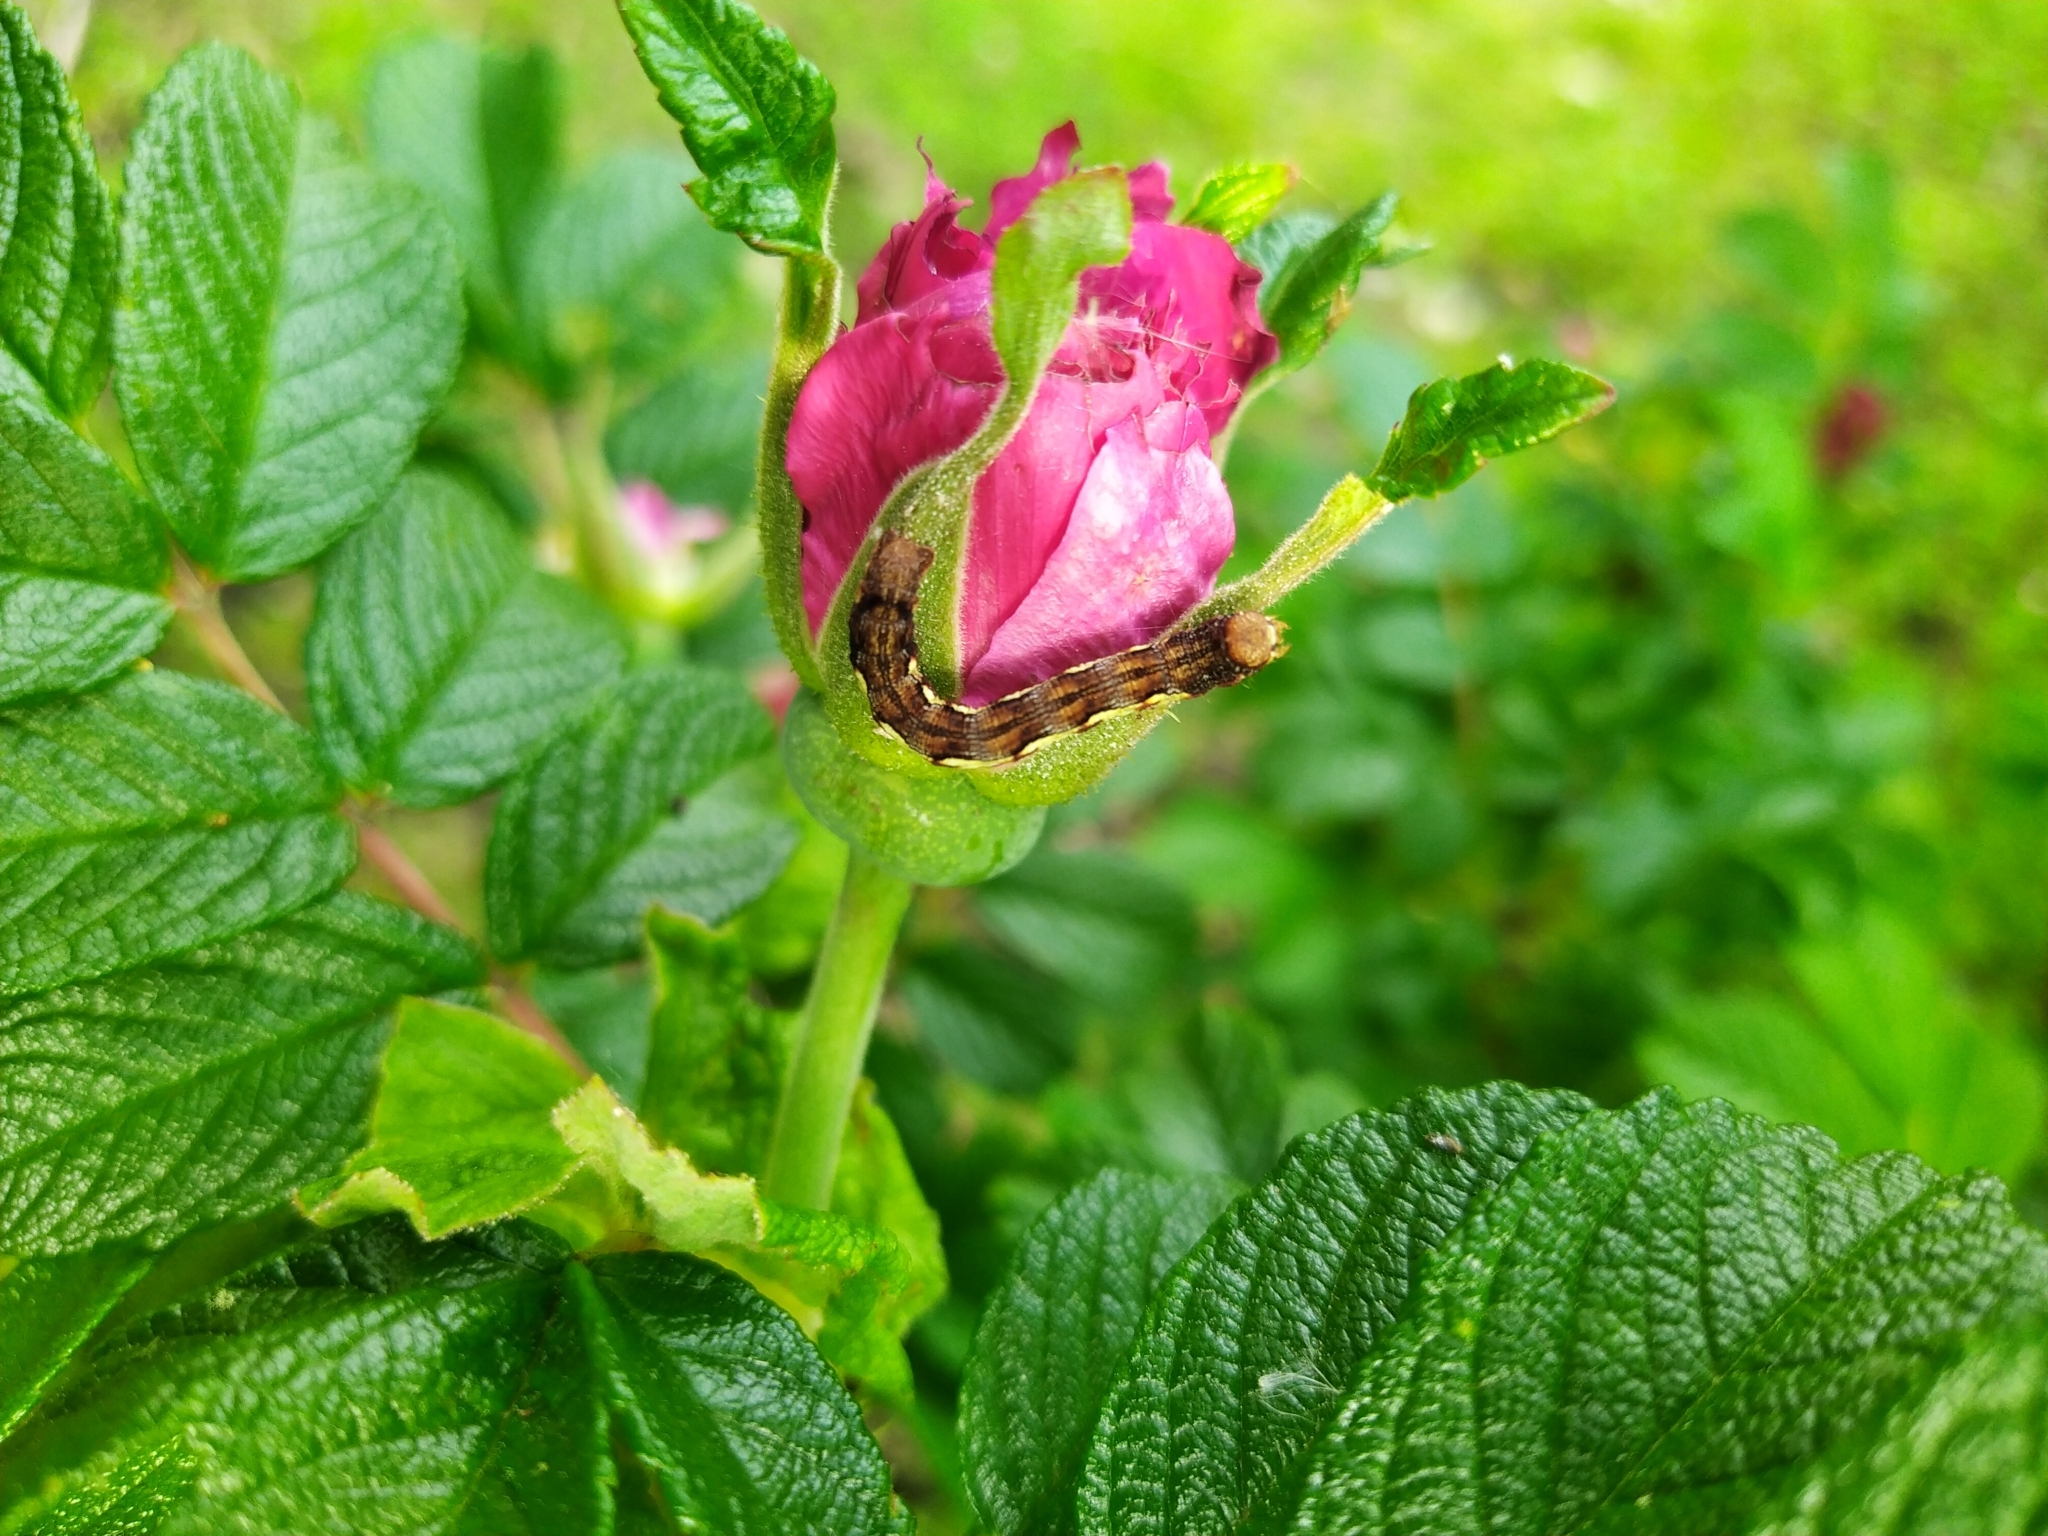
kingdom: Animalia
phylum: Arthropoda
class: Insecta
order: Lepidoptera
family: Geometridae
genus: Erannis
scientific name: Erannis defoliaria
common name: Mottled umber
